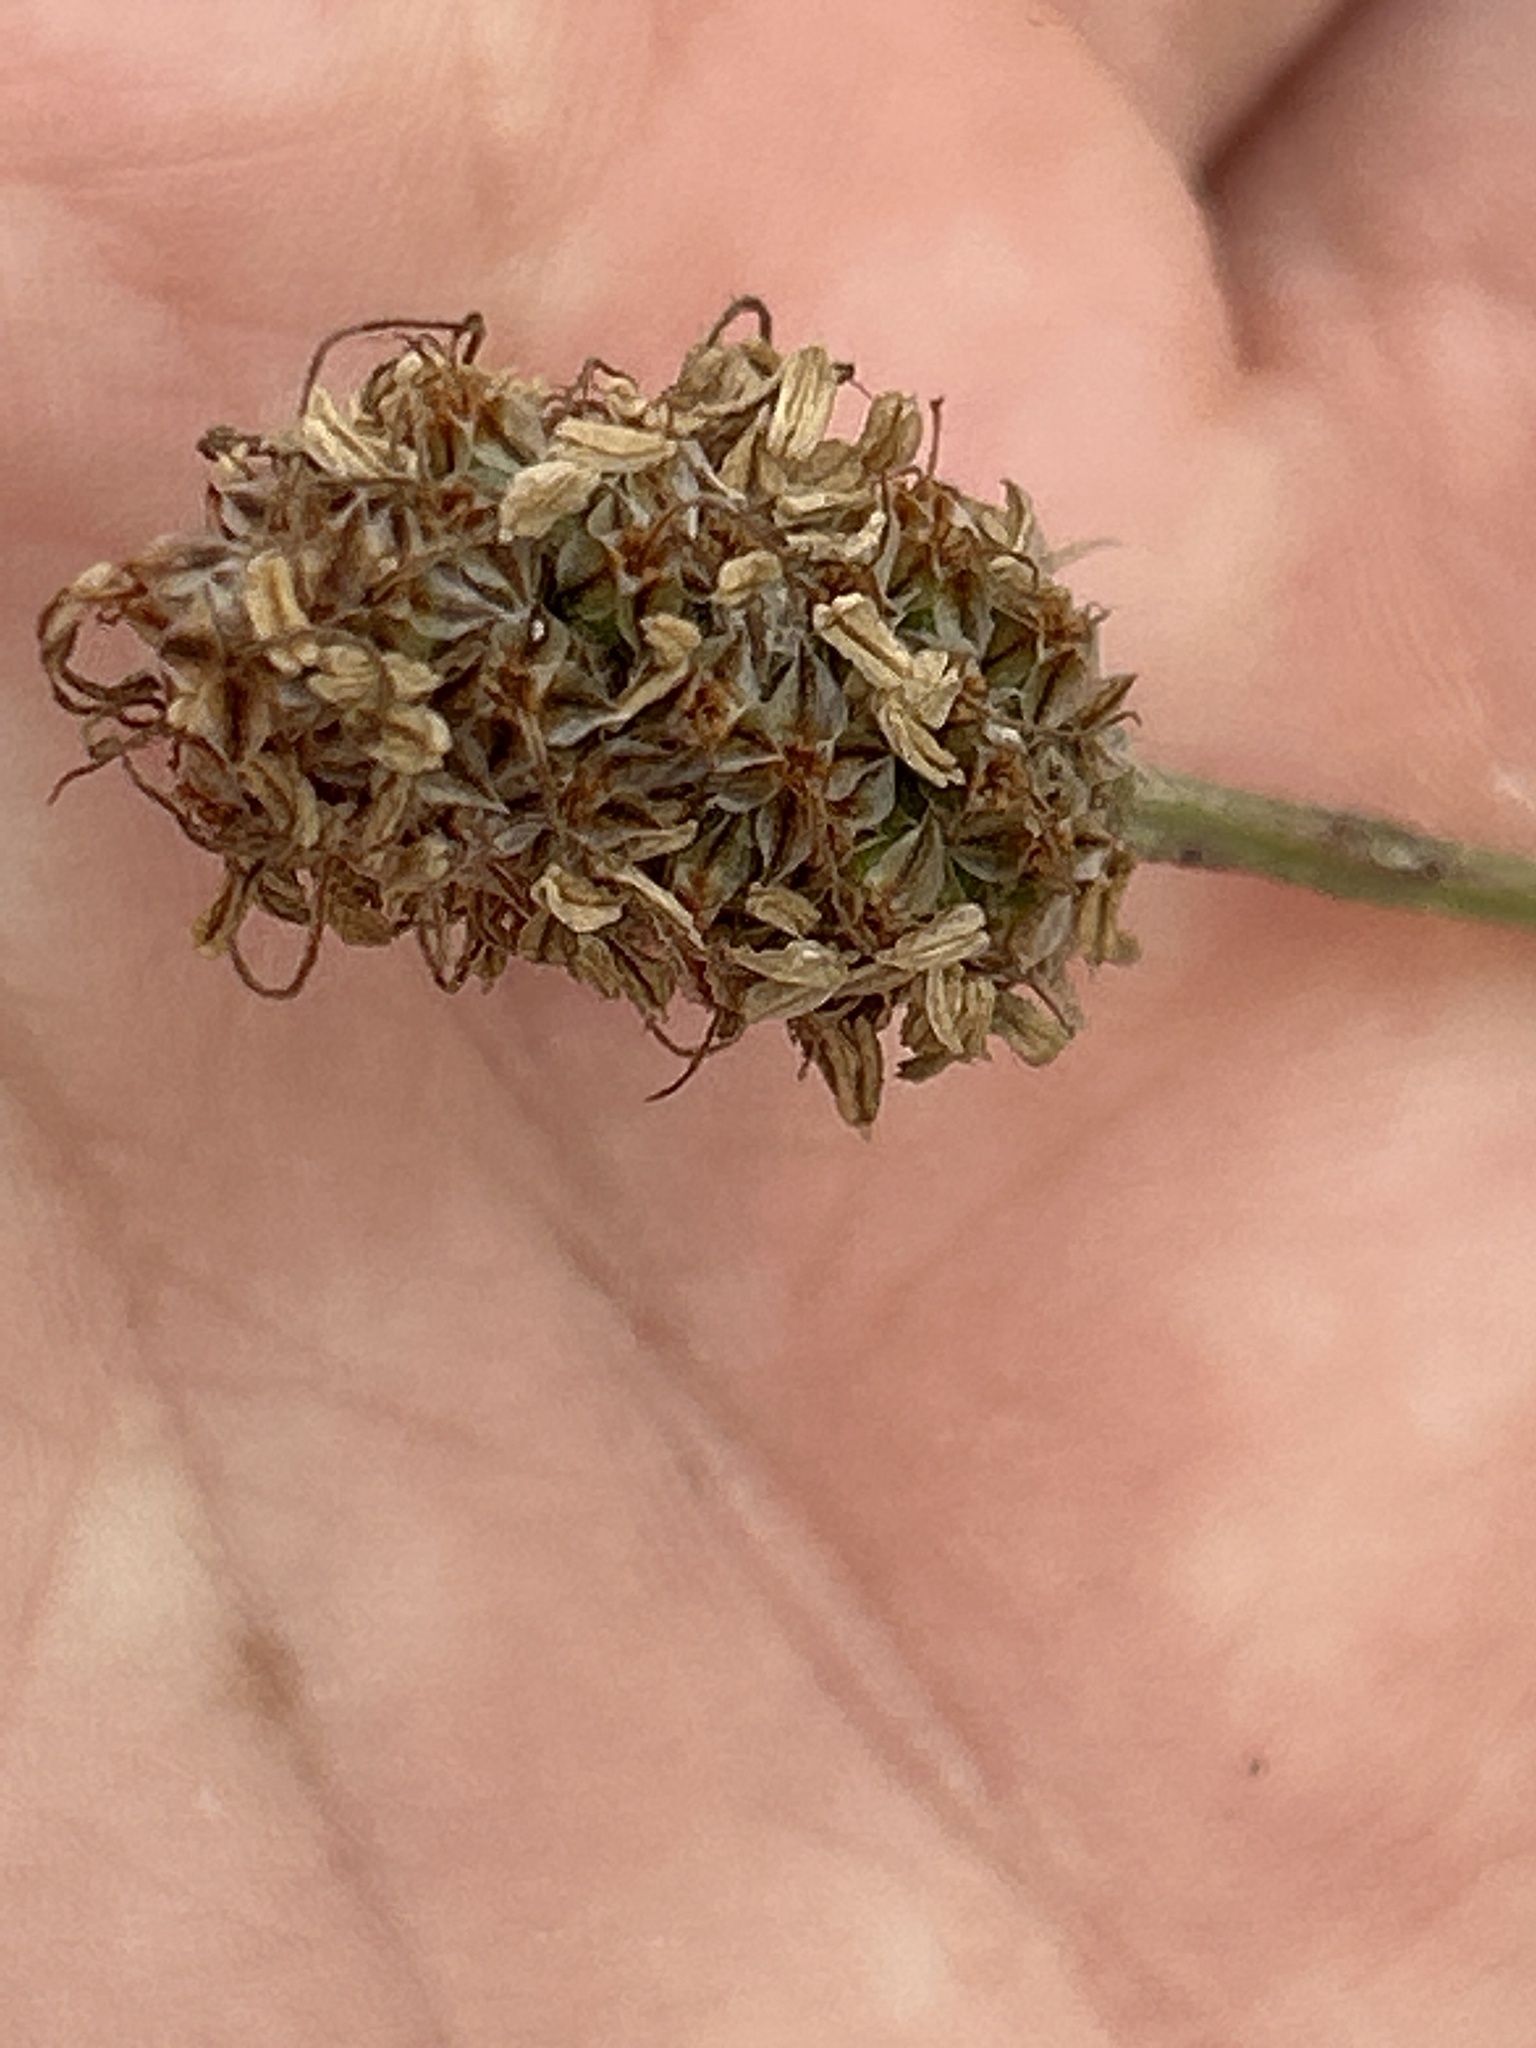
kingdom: Plantae
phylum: Tracheophyta
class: Magnoliopsida
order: Lamiales
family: Plantaginaceae
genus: Plantago
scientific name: Plantago lanceolata
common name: Ribwort plantain
